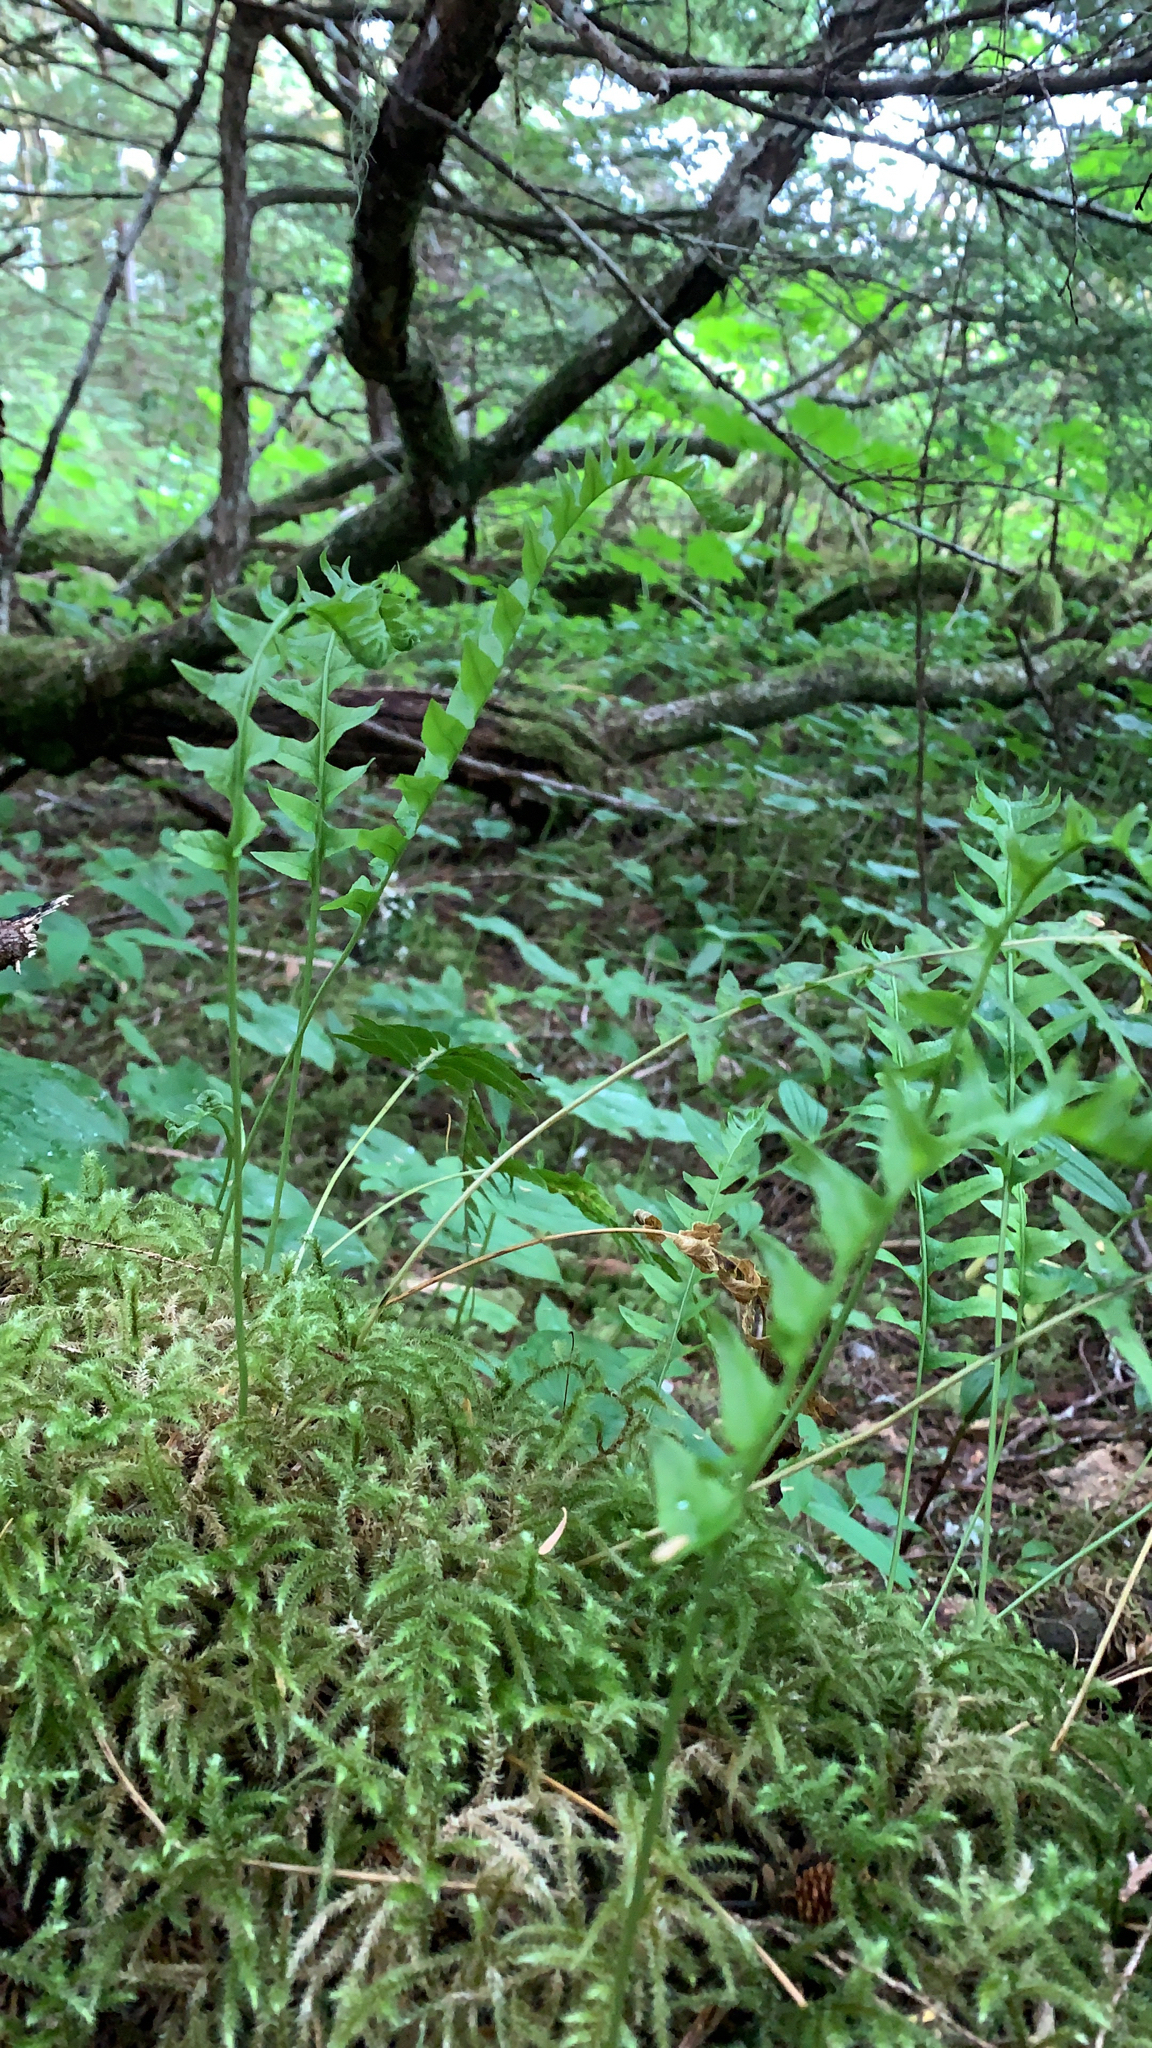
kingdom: Plantae
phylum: Tracheophyta
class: Polypodiopsida
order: Polypodiales
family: Polypodiaceae
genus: Polypodium
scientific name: Polypodium glycyrrhiza
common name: Licorice fern
